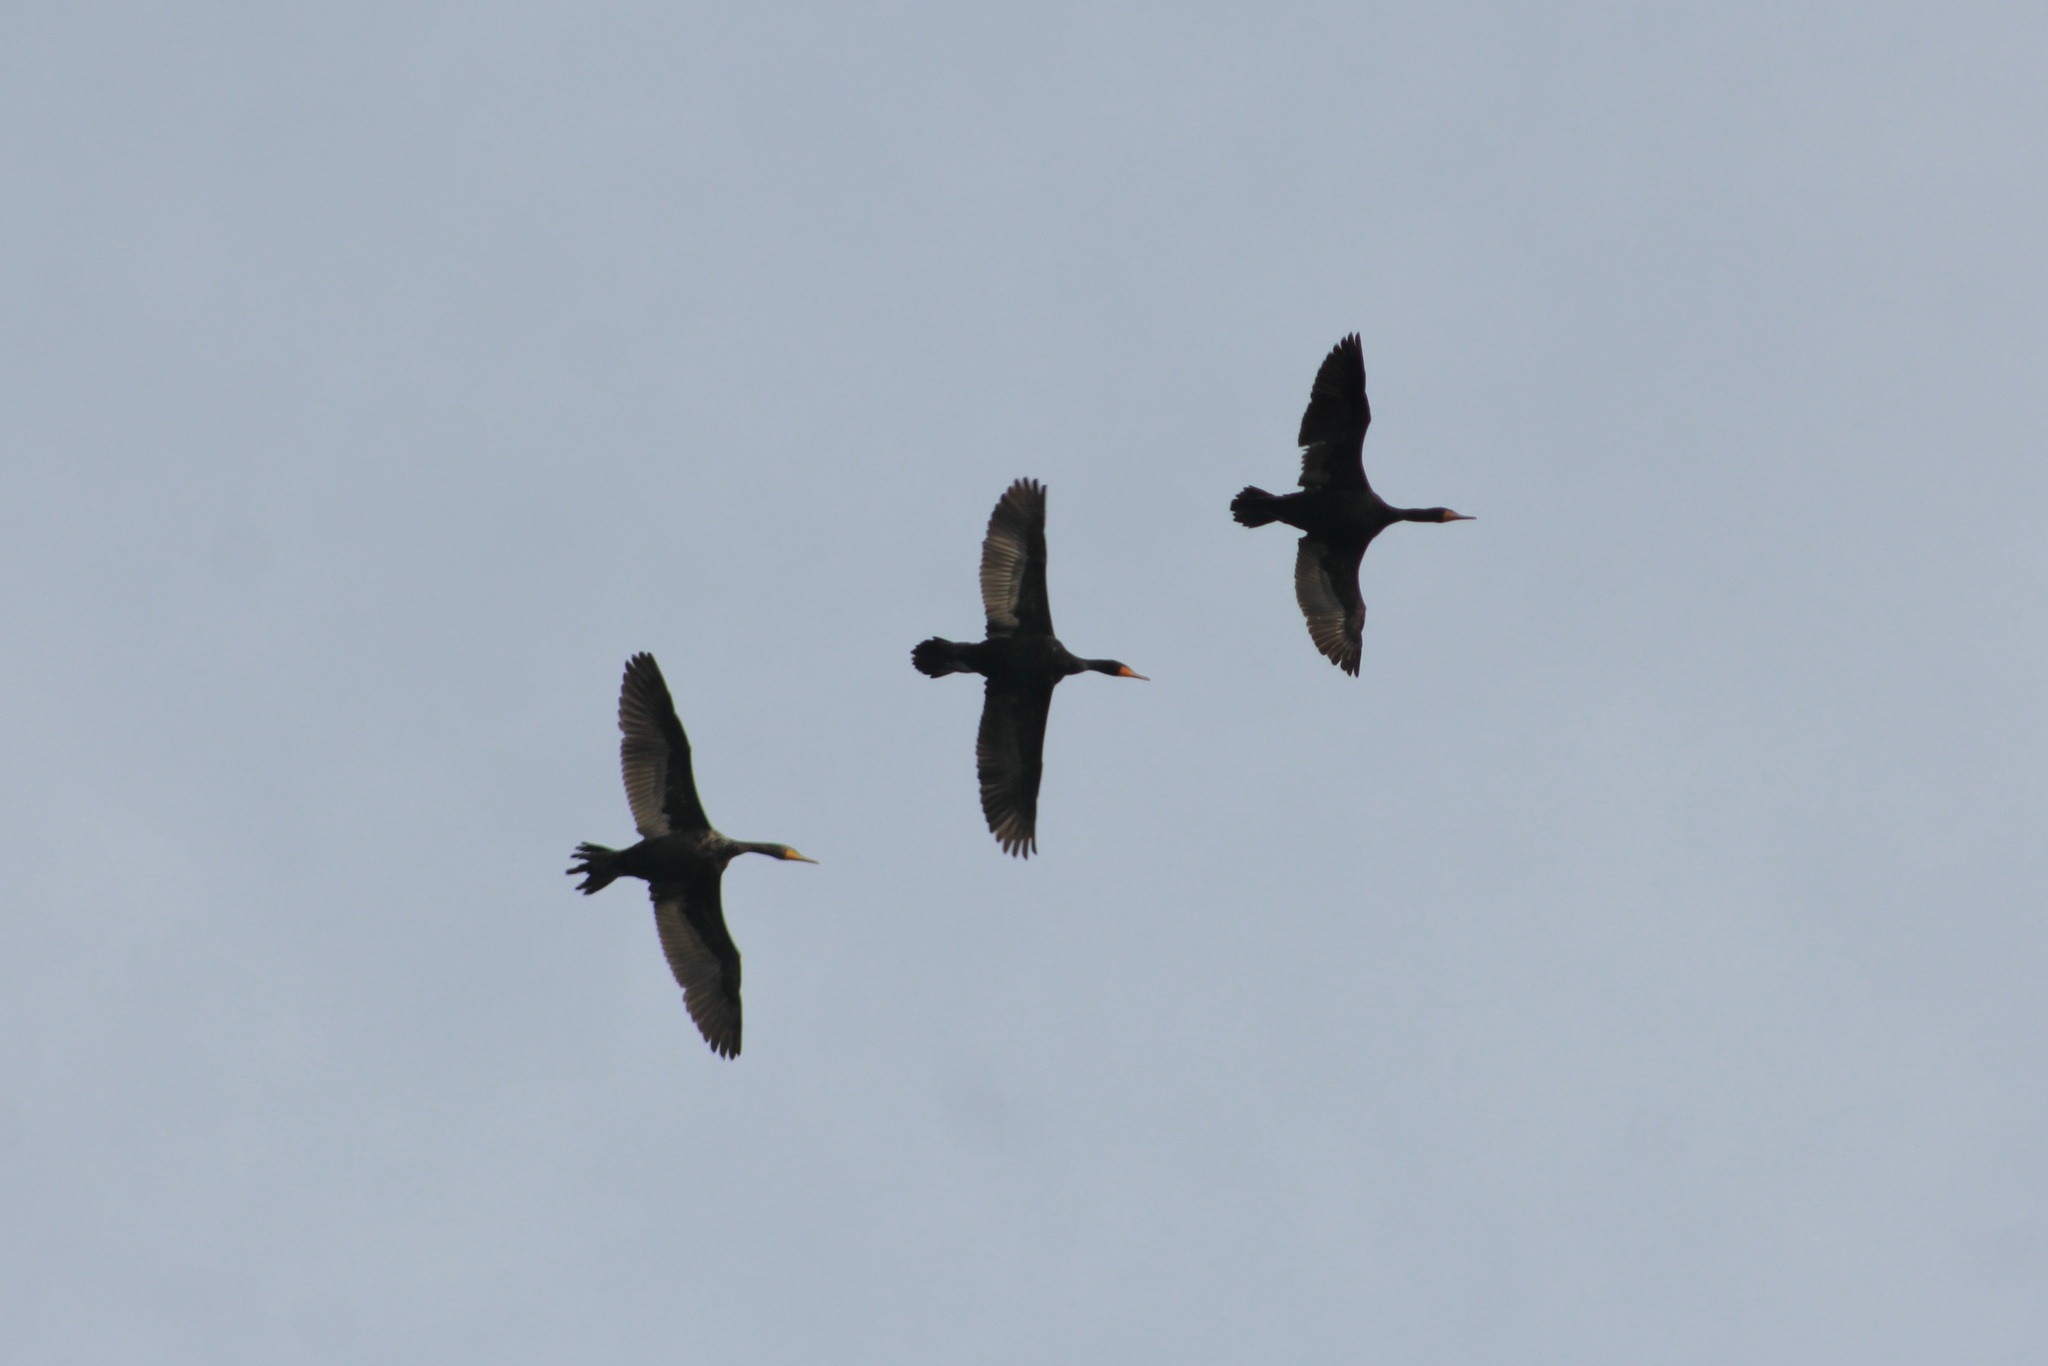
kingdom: Animalia
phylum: Chordata
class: Aves
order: Suliformes
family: Phalacrocoracidae
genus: Phalacrocorax
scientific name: Phalacrocorax auritus
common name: Double-crested cormorant
